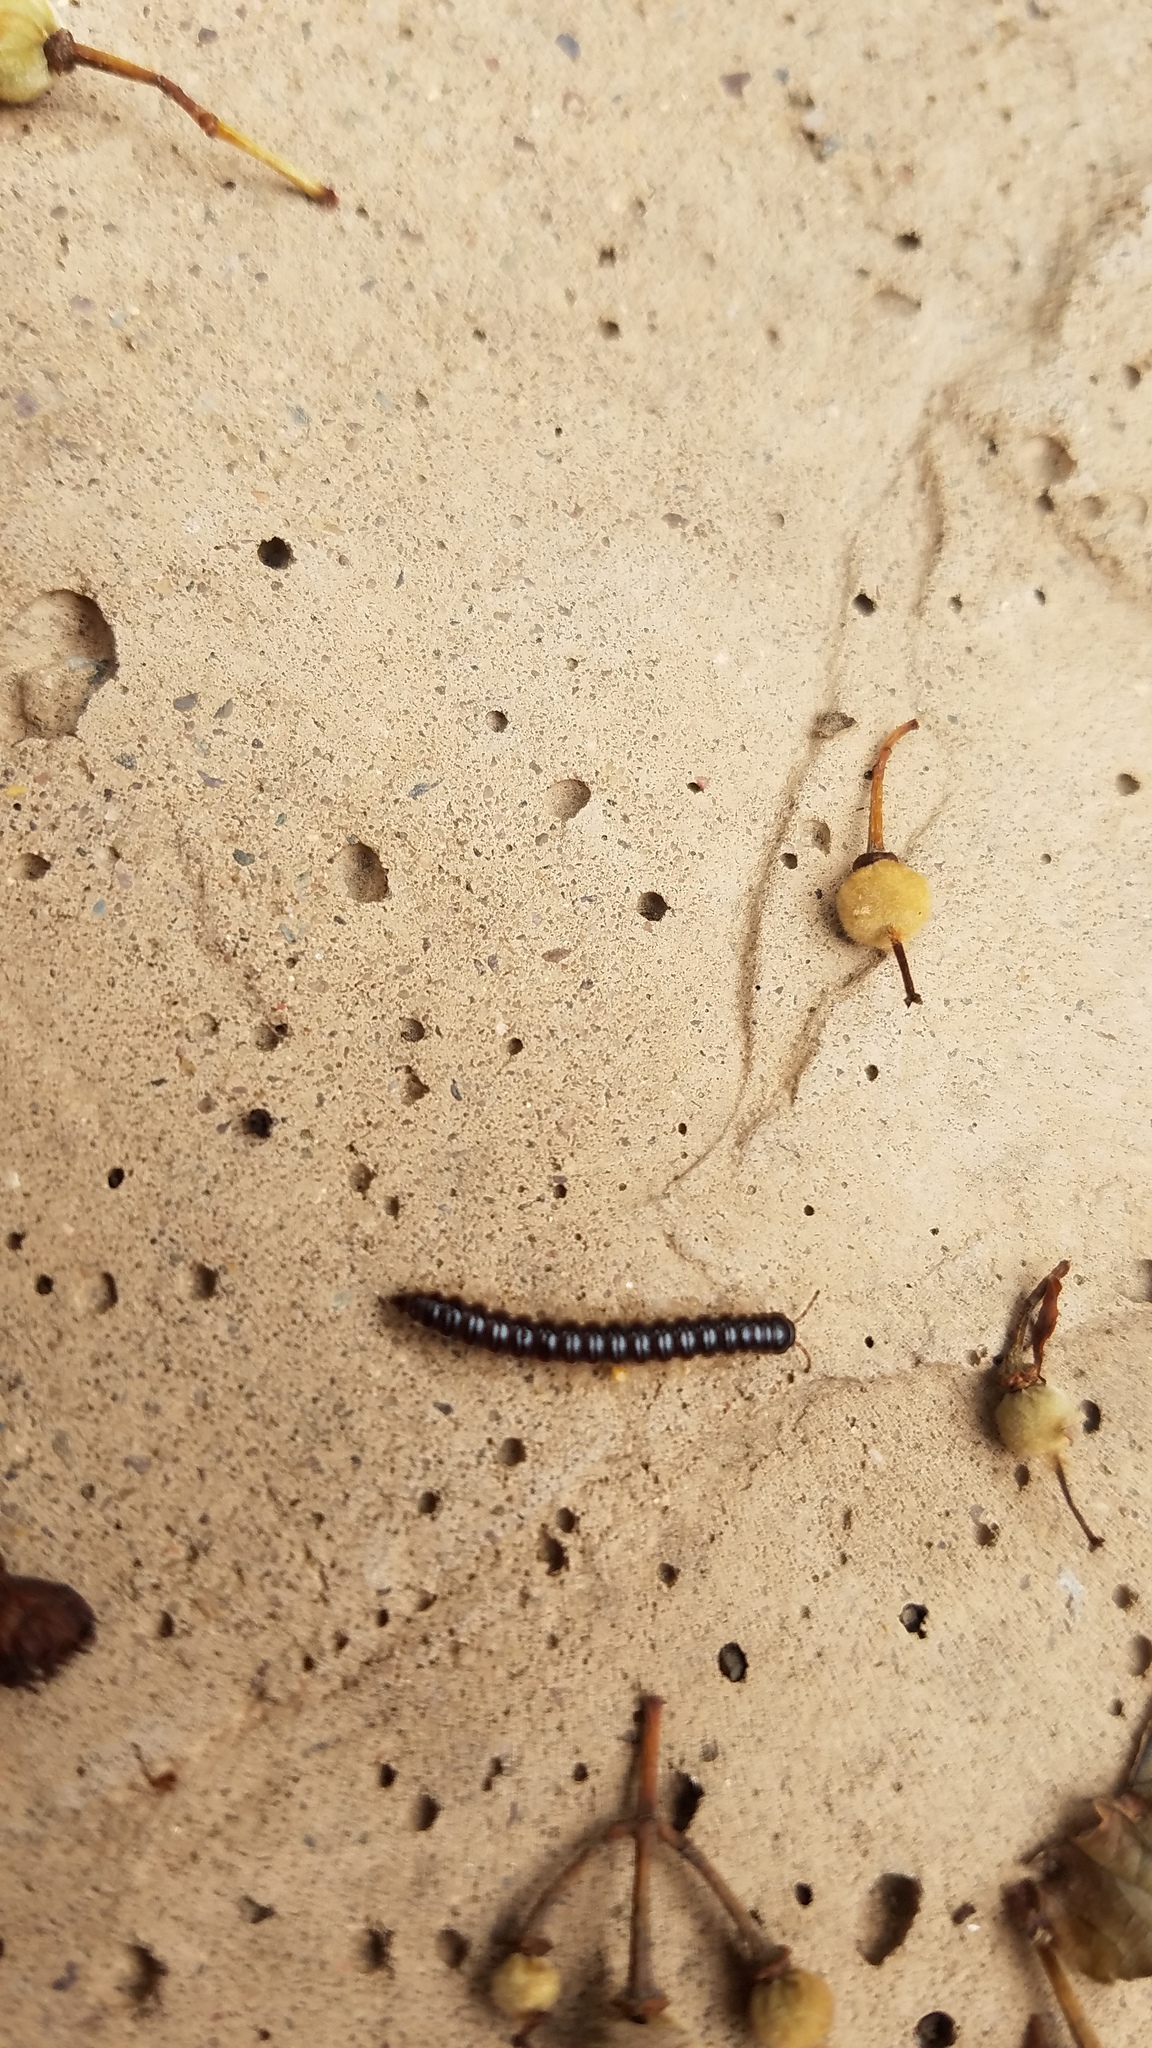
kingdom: Animalia
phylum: Arthropoda
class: Diplopoda
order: Polydesmida
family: Paradoxosomatidae
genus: Oxidus
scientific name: Oxidus gracilis
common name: Greenhouse millipede
